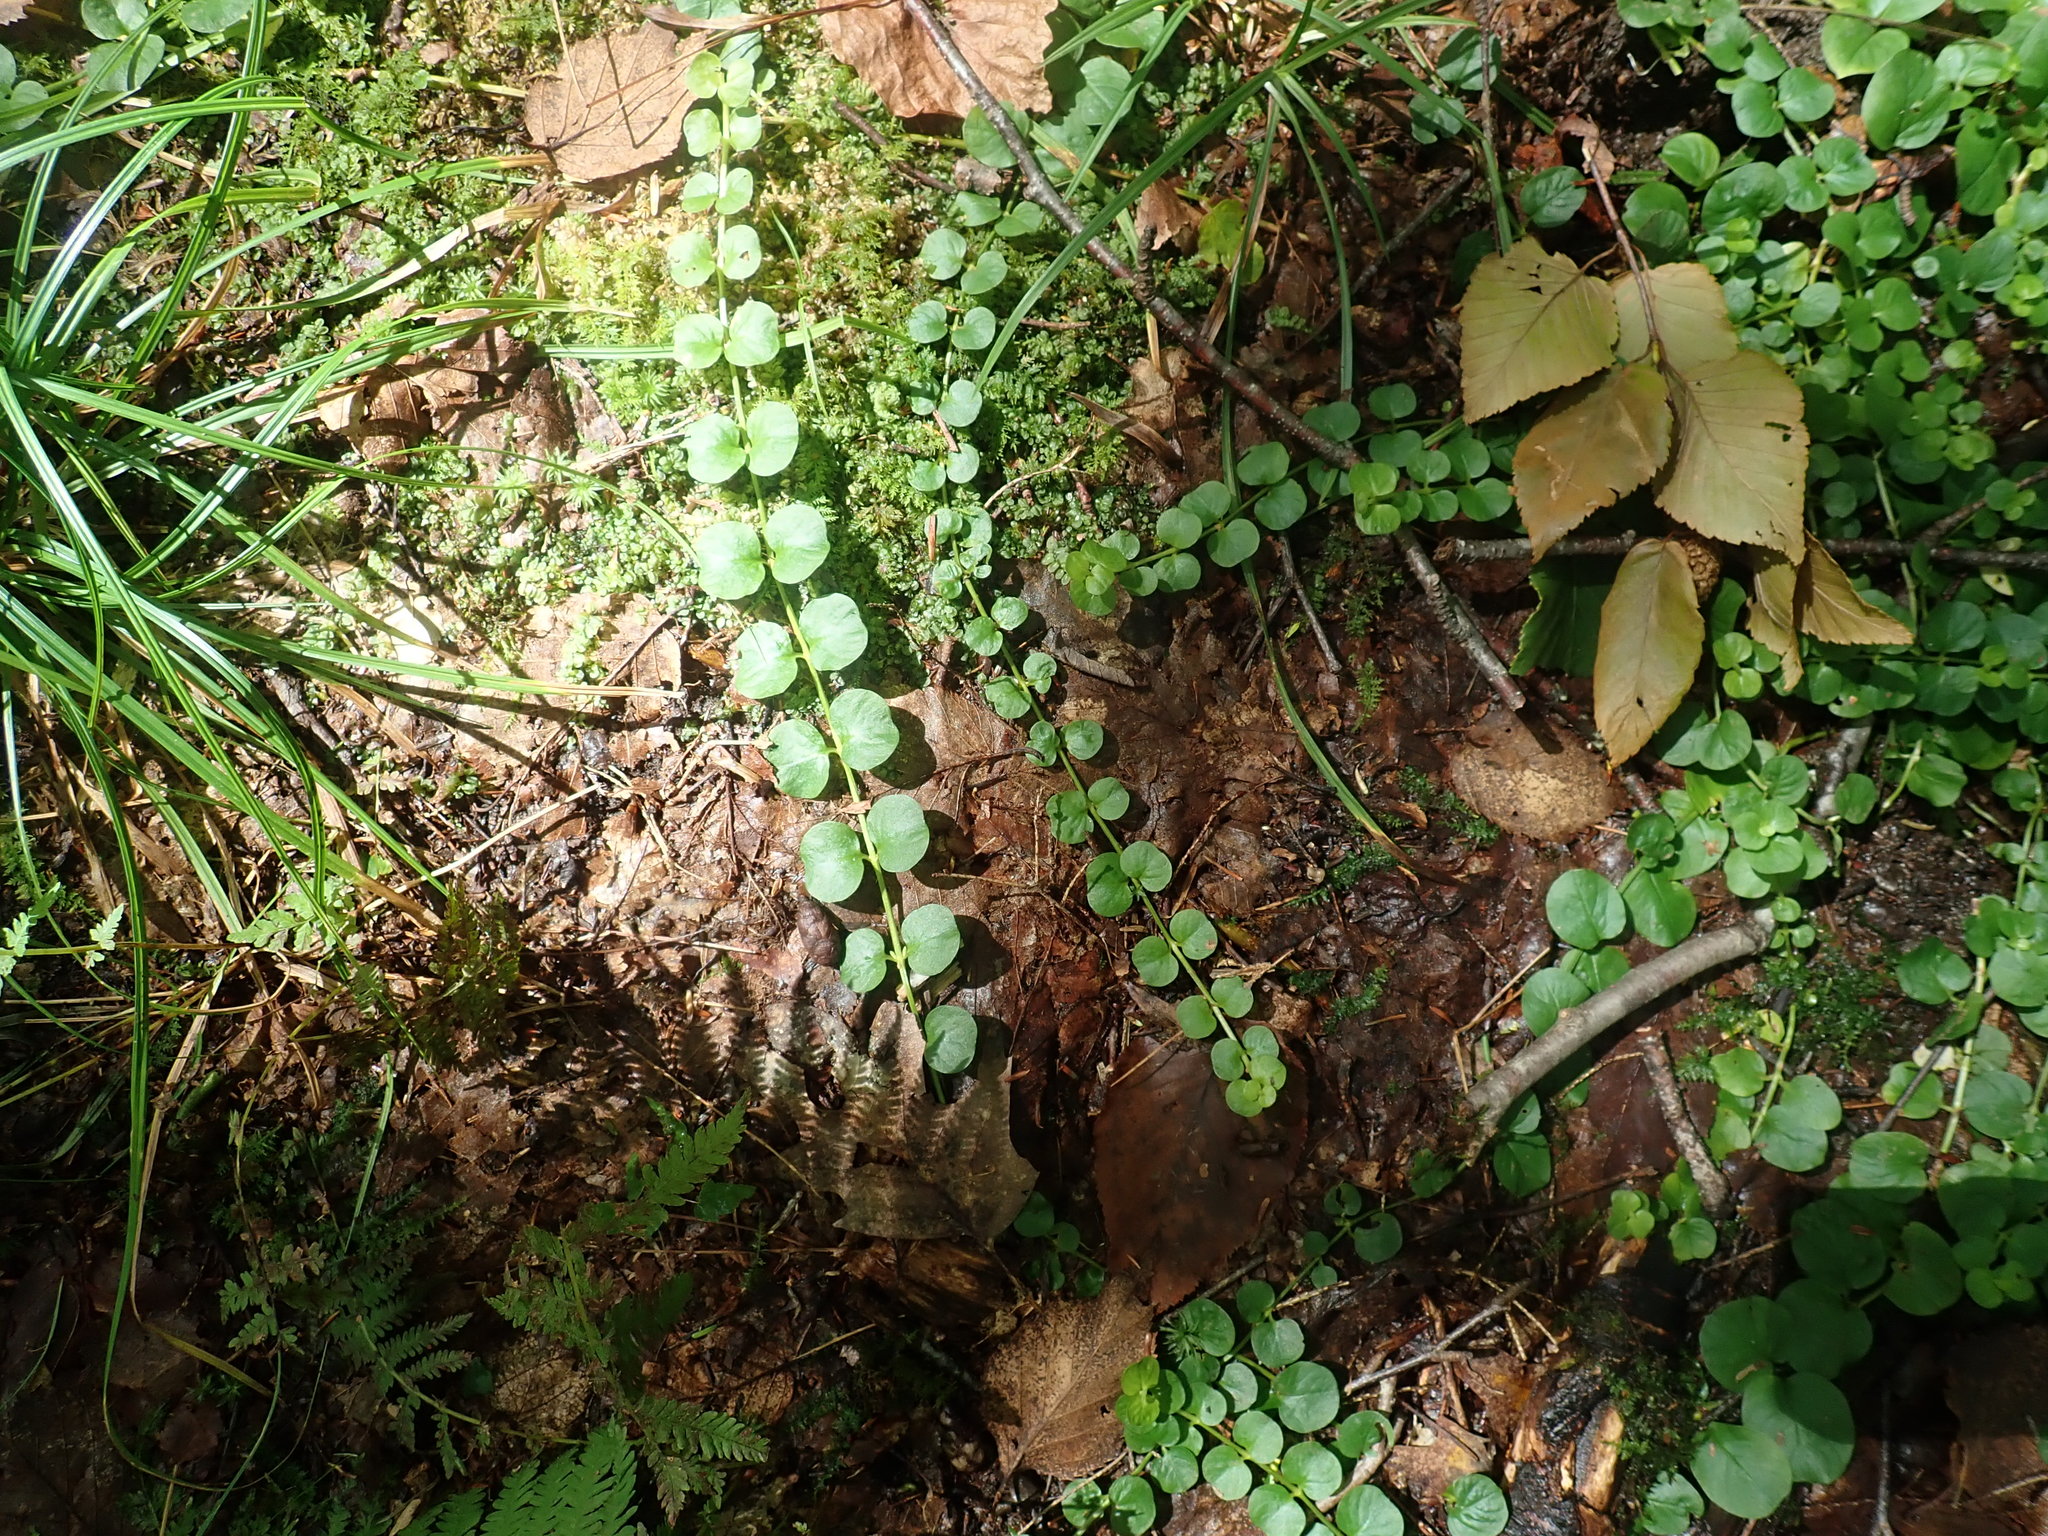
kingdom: Plantae
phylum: Tracheophyta
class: Magnoliopsida
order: Ericales
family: Primulaceae
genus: Lysimachia
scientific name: Lysimachia nummularia
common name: Moneywort
